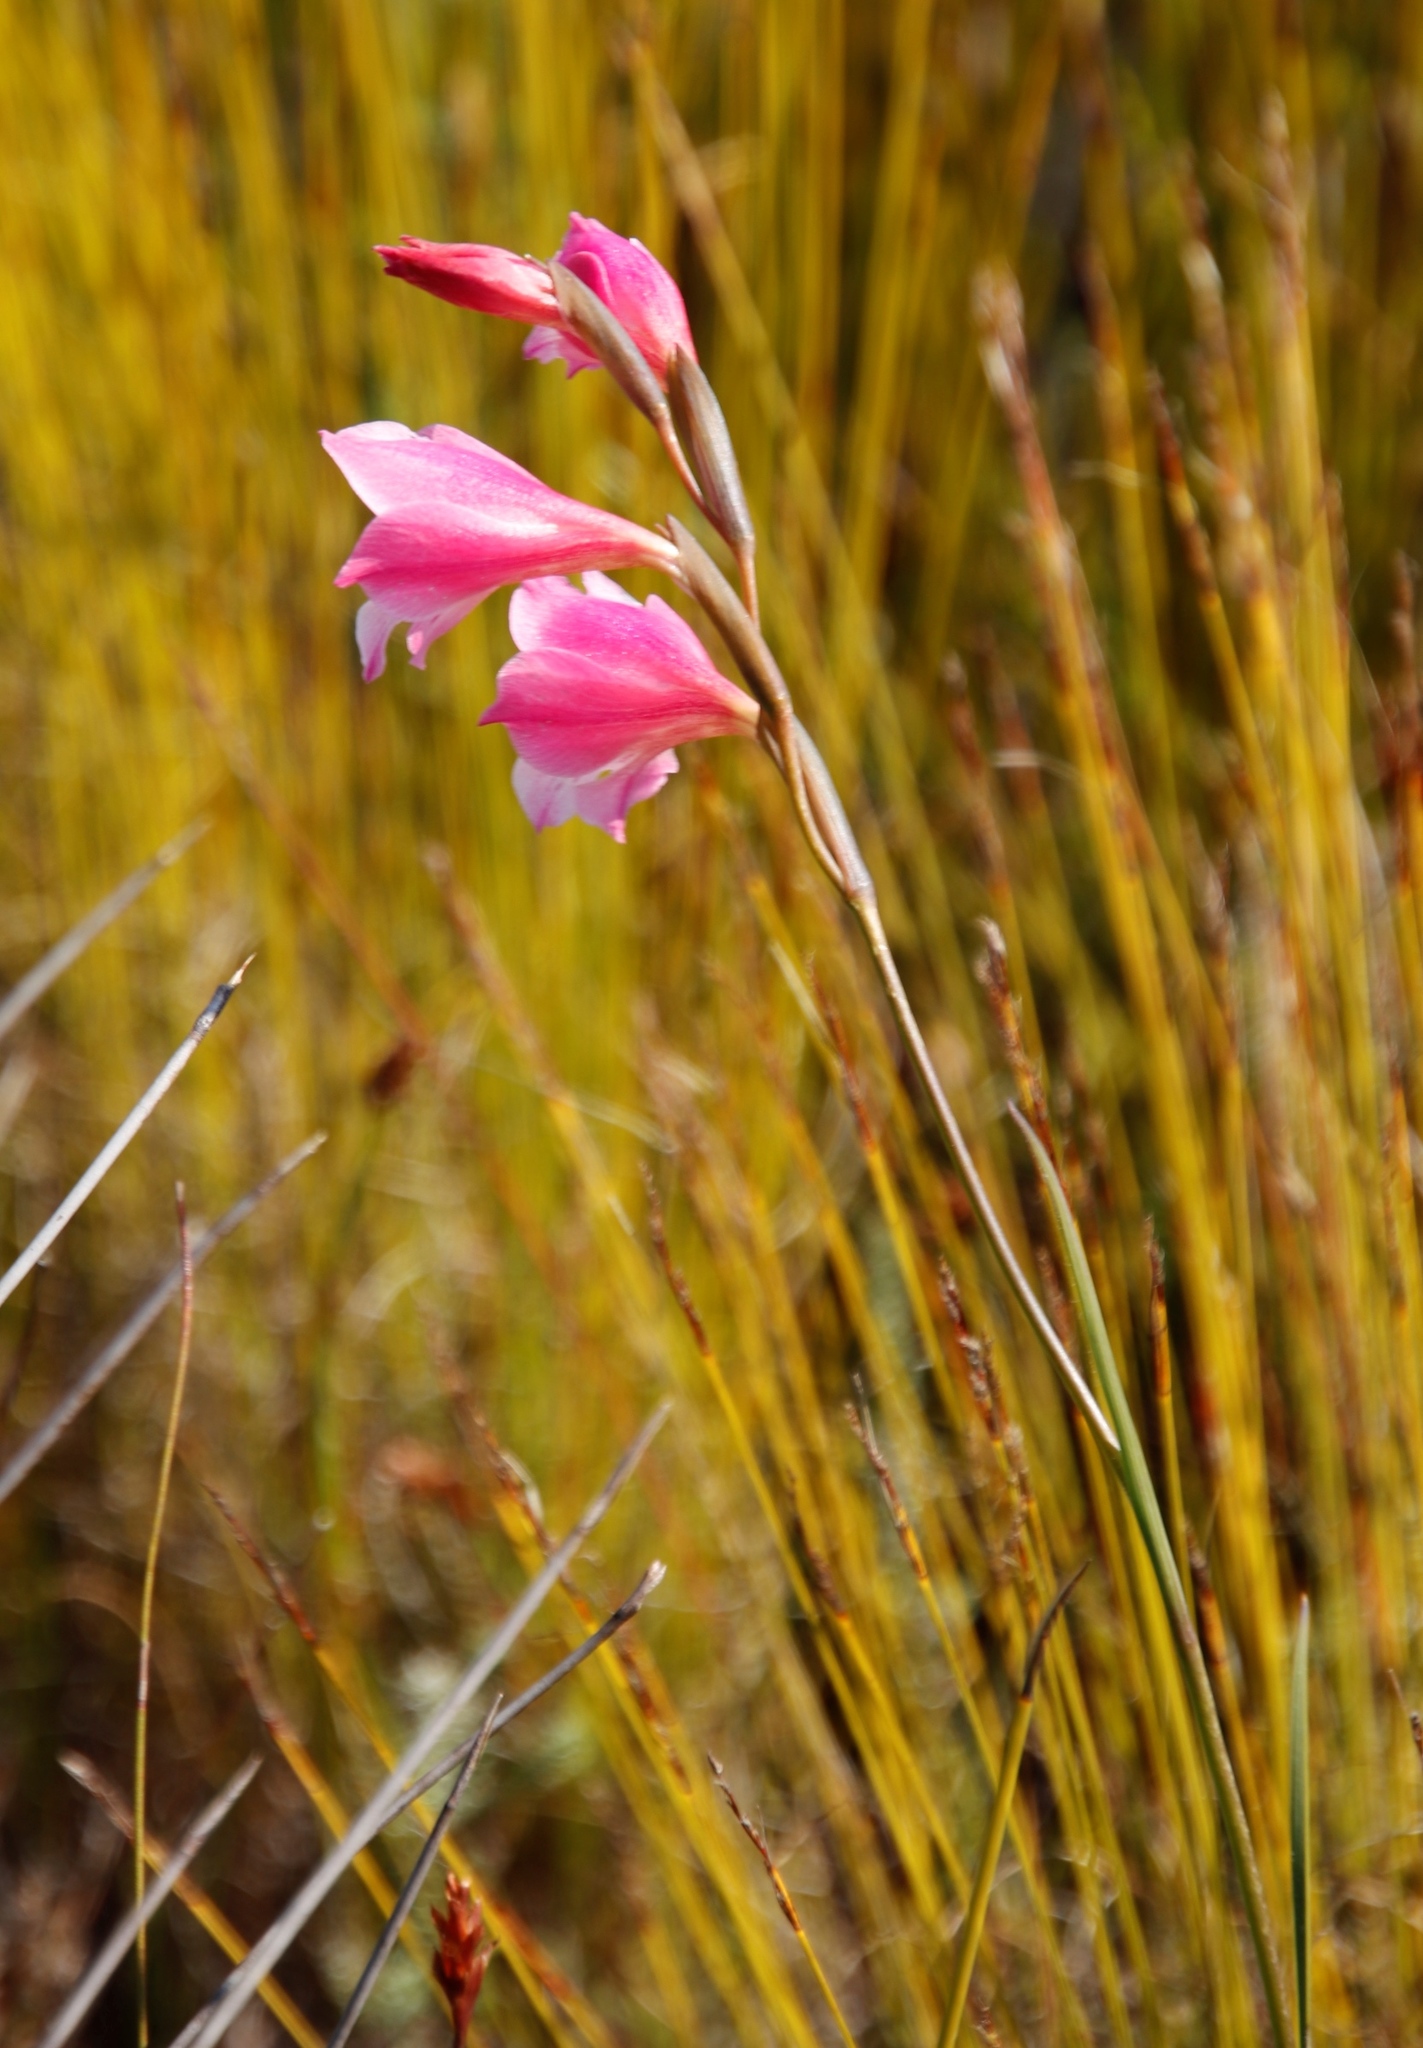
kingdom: Plantae
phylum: Tracheophyta
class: Liliopsida
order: Asparagales
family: Iridaceae
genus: Gladiolus
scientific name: Gladiolus hirsutus
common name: Small pink afrikaner
